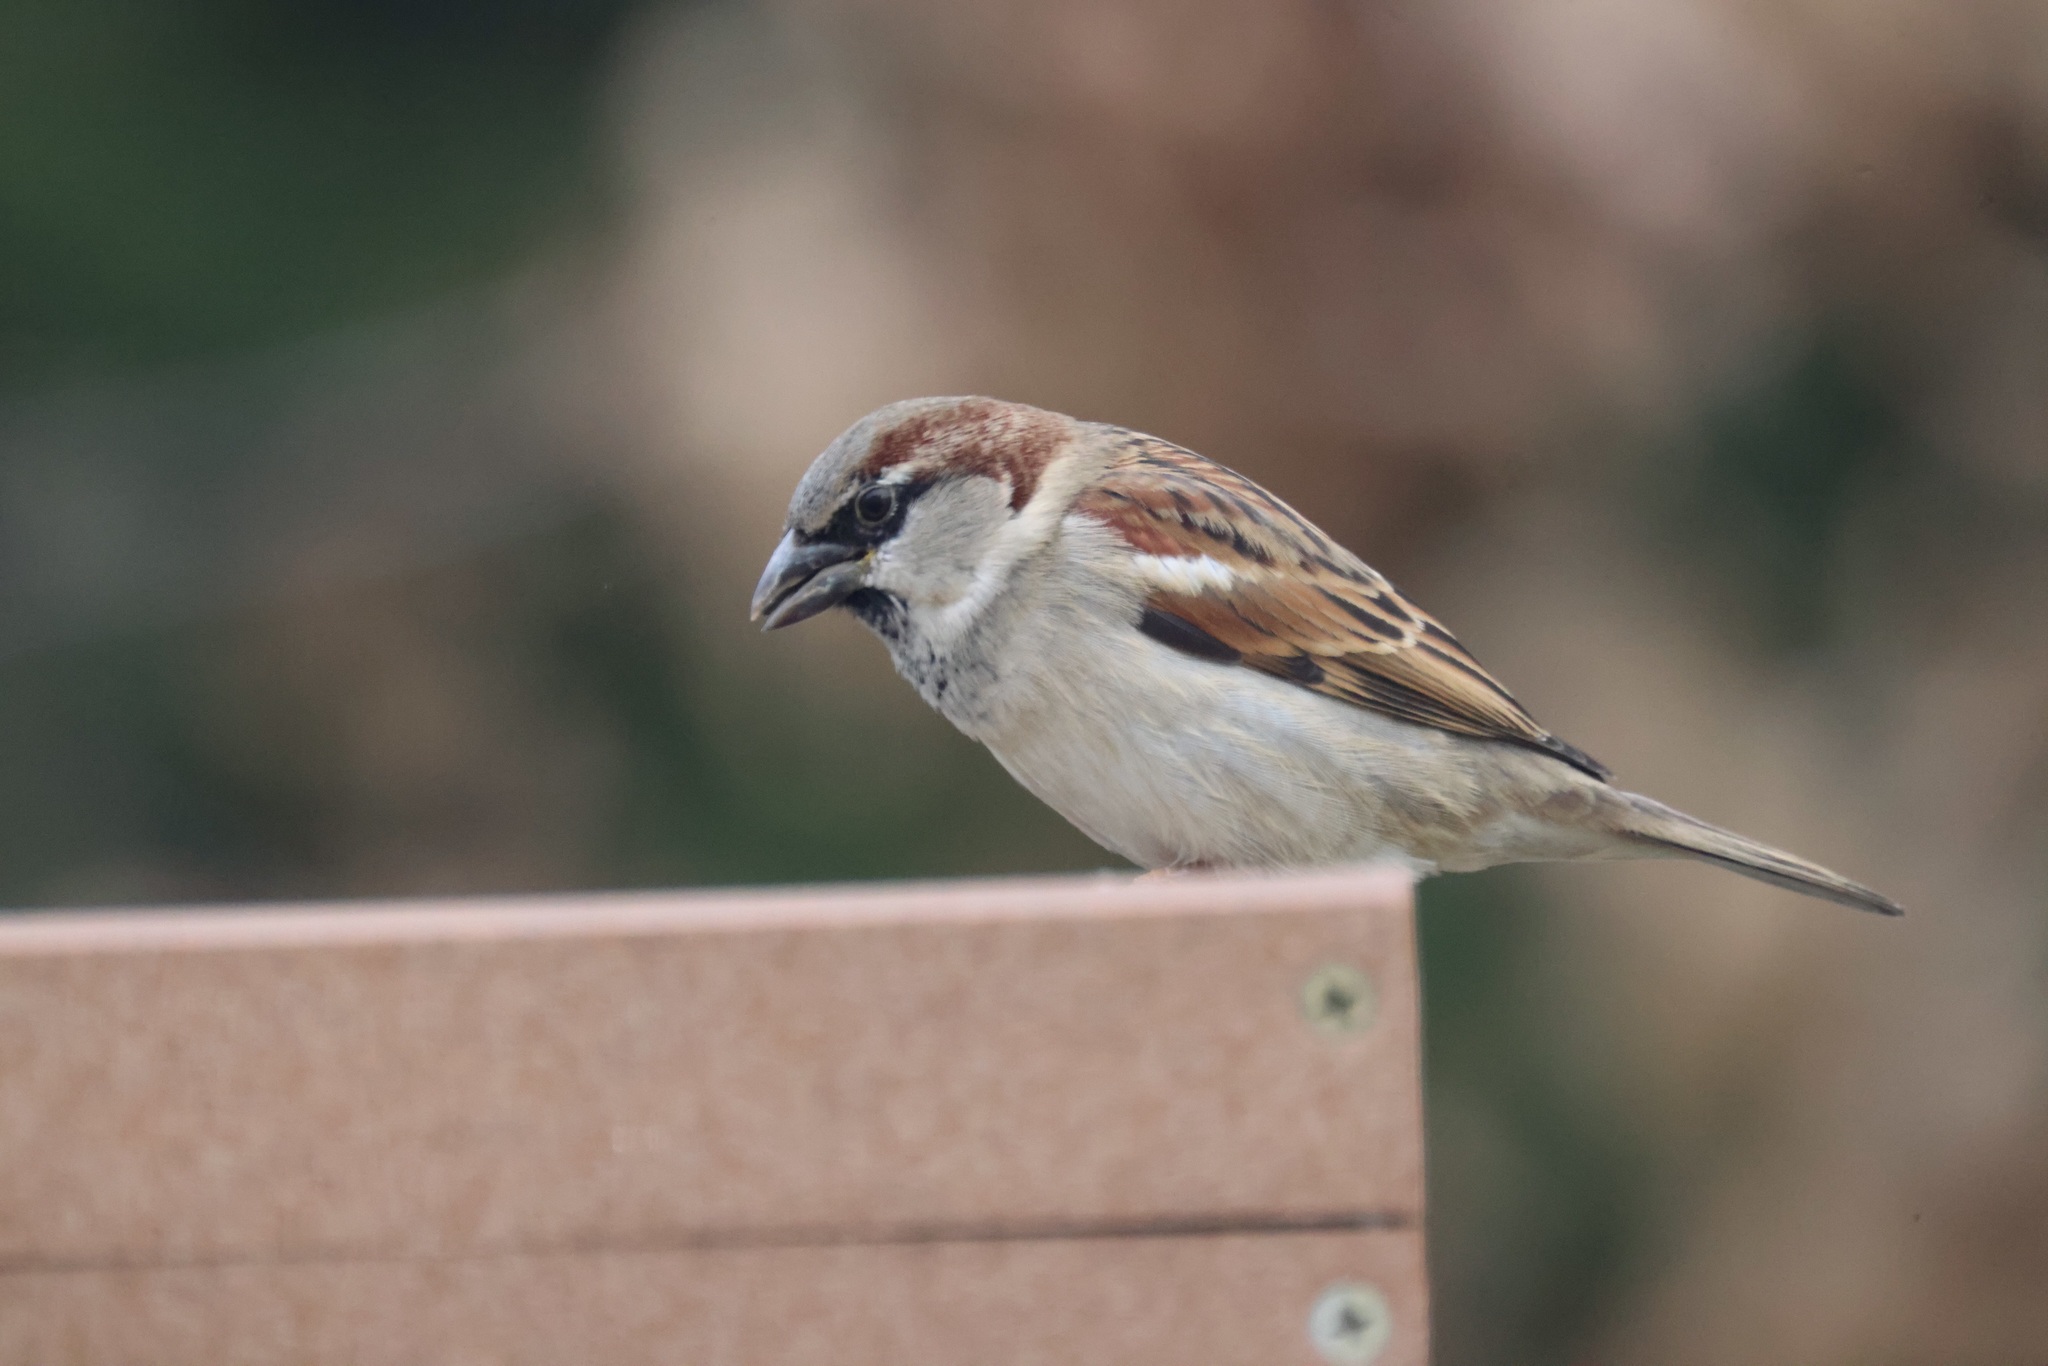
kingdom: Animalia
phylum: Chordata
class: Aves
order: Passeriformes
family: Passeridae
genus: Passer
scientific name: Passer domesticus
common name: House sparrow
